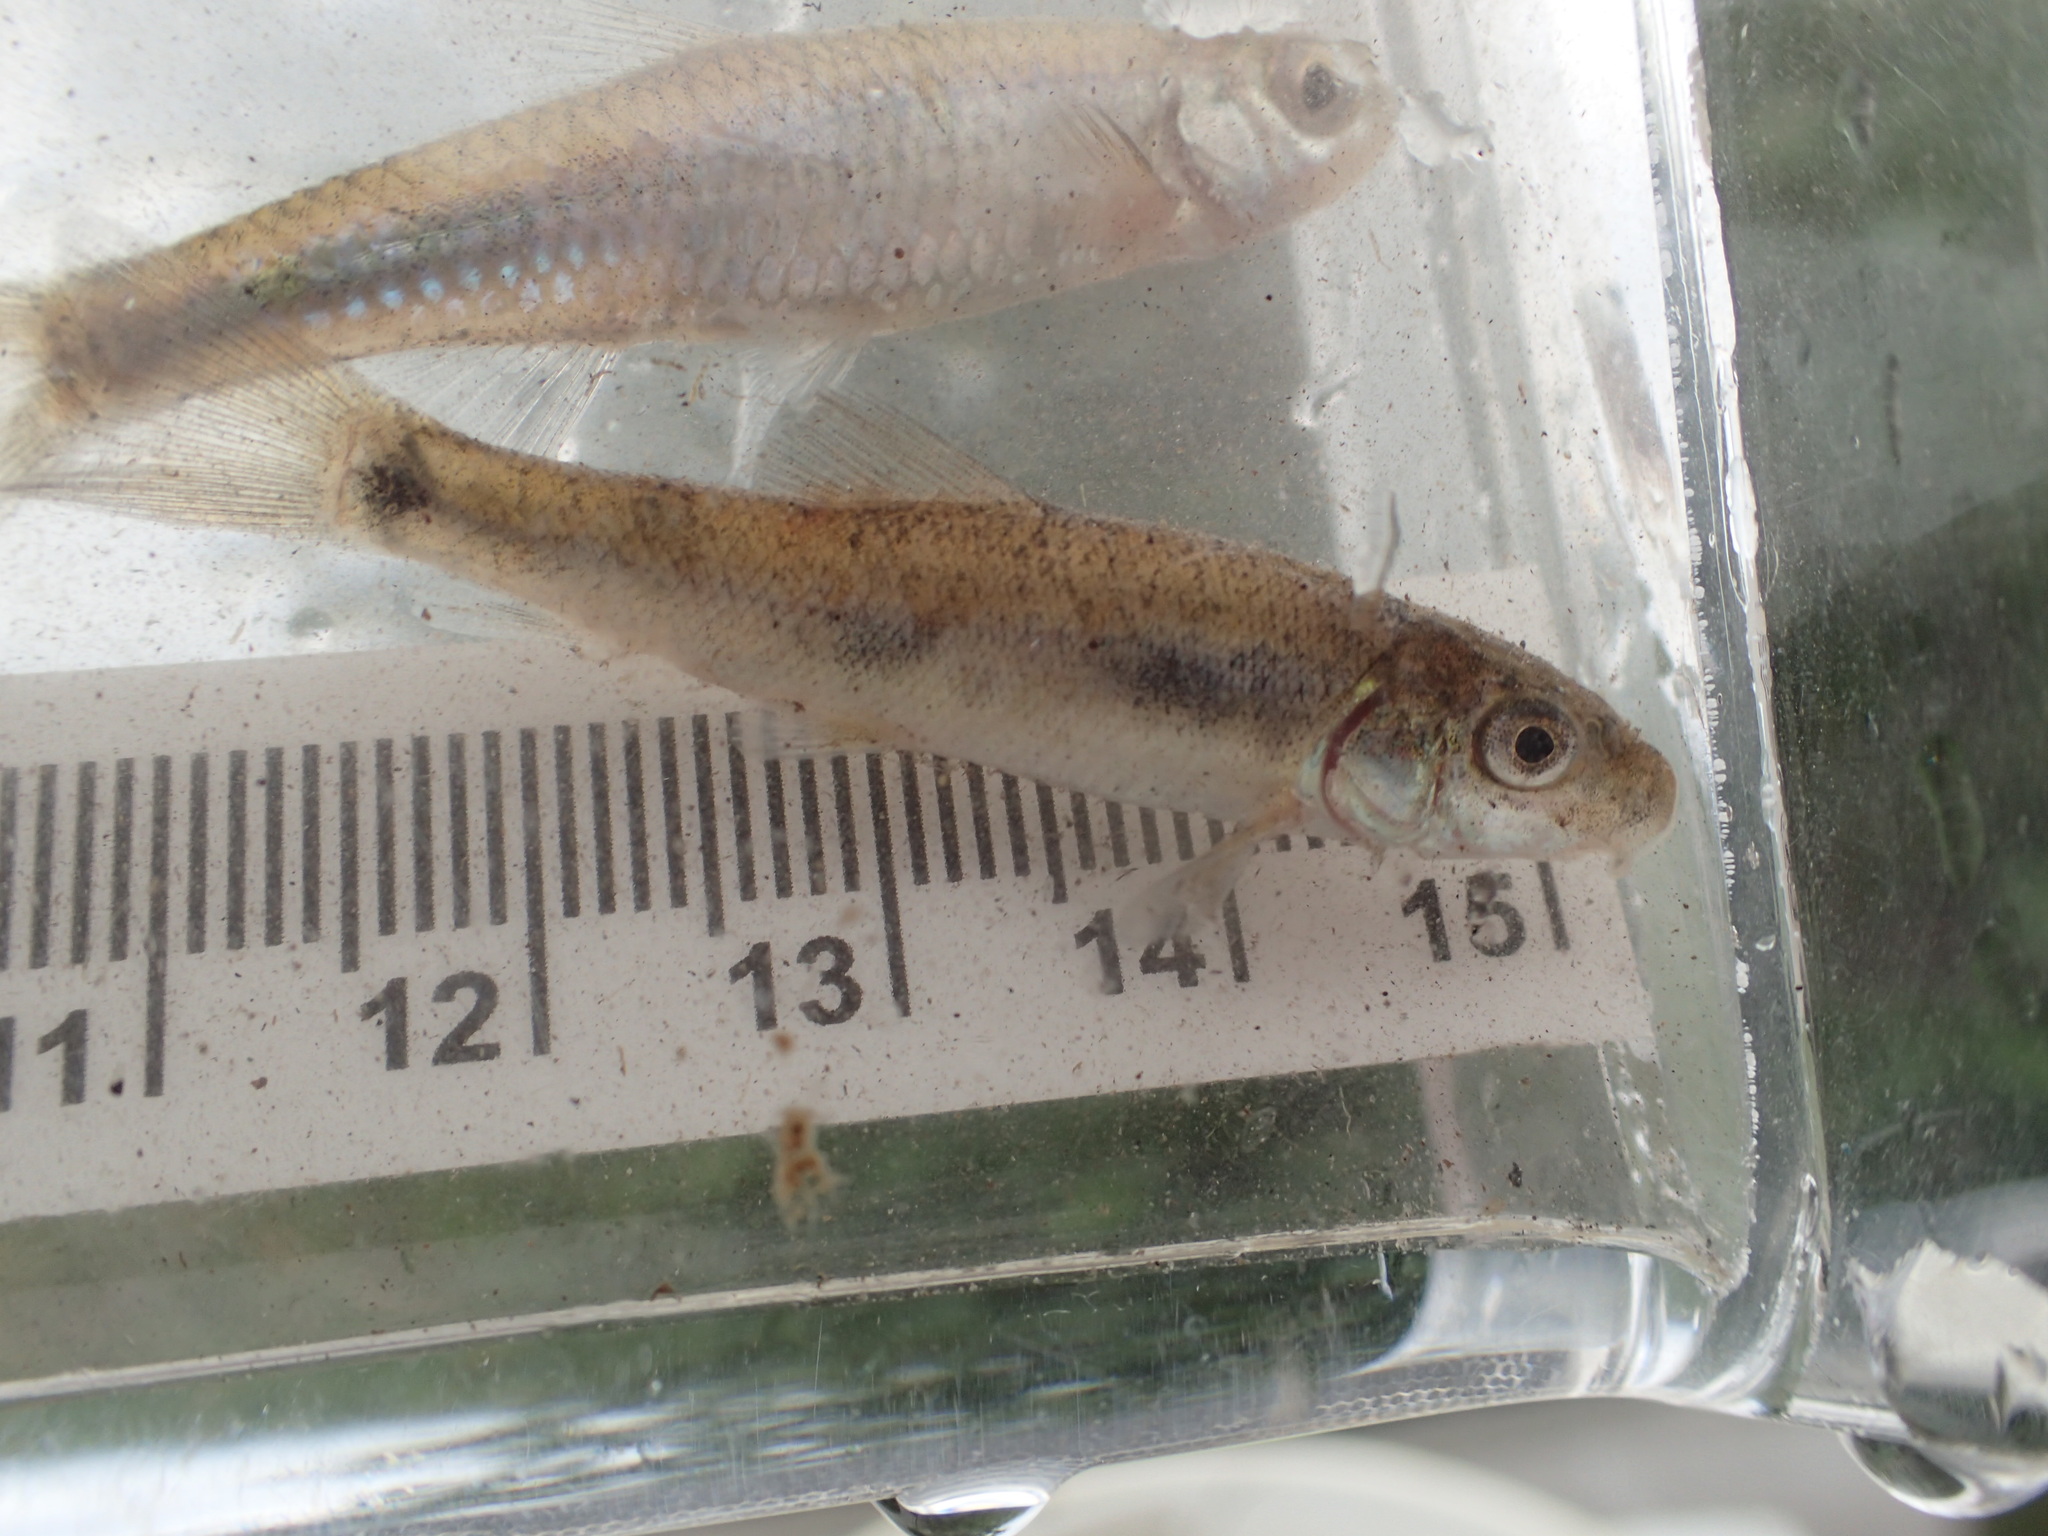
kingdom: Animalia
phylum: Chordata
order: Cypriniformes
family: Catostomidae
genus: Catostomus
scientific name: Catostomus commersonii
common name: White sucker
